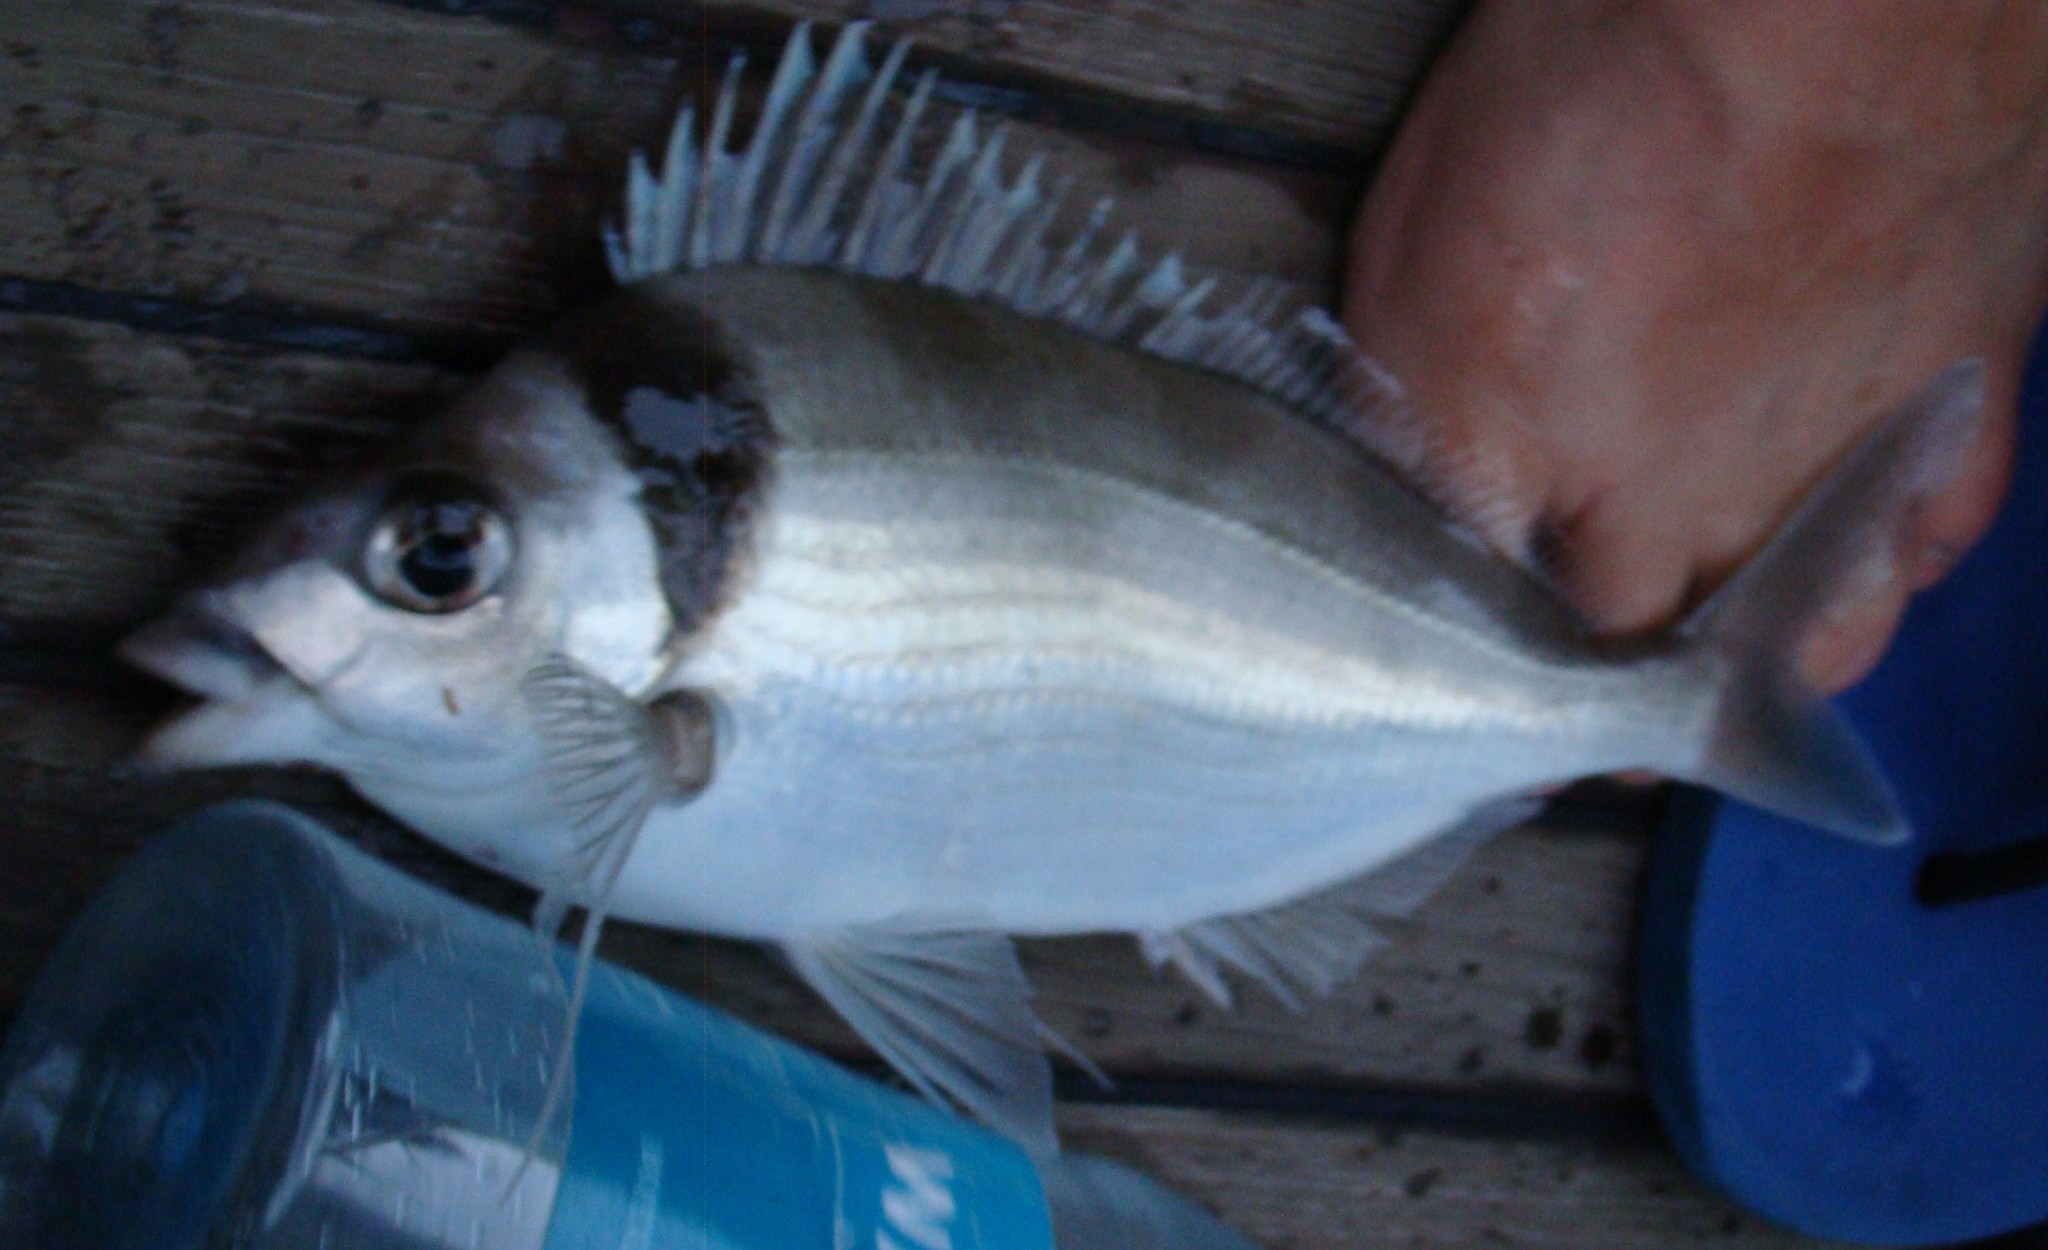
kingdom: Animalia
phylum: Chordata
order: Perciformes
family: Cheilodactylidae
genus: Nemadactylus
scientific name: Nemadactylus macropterus
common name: Tarakihi
